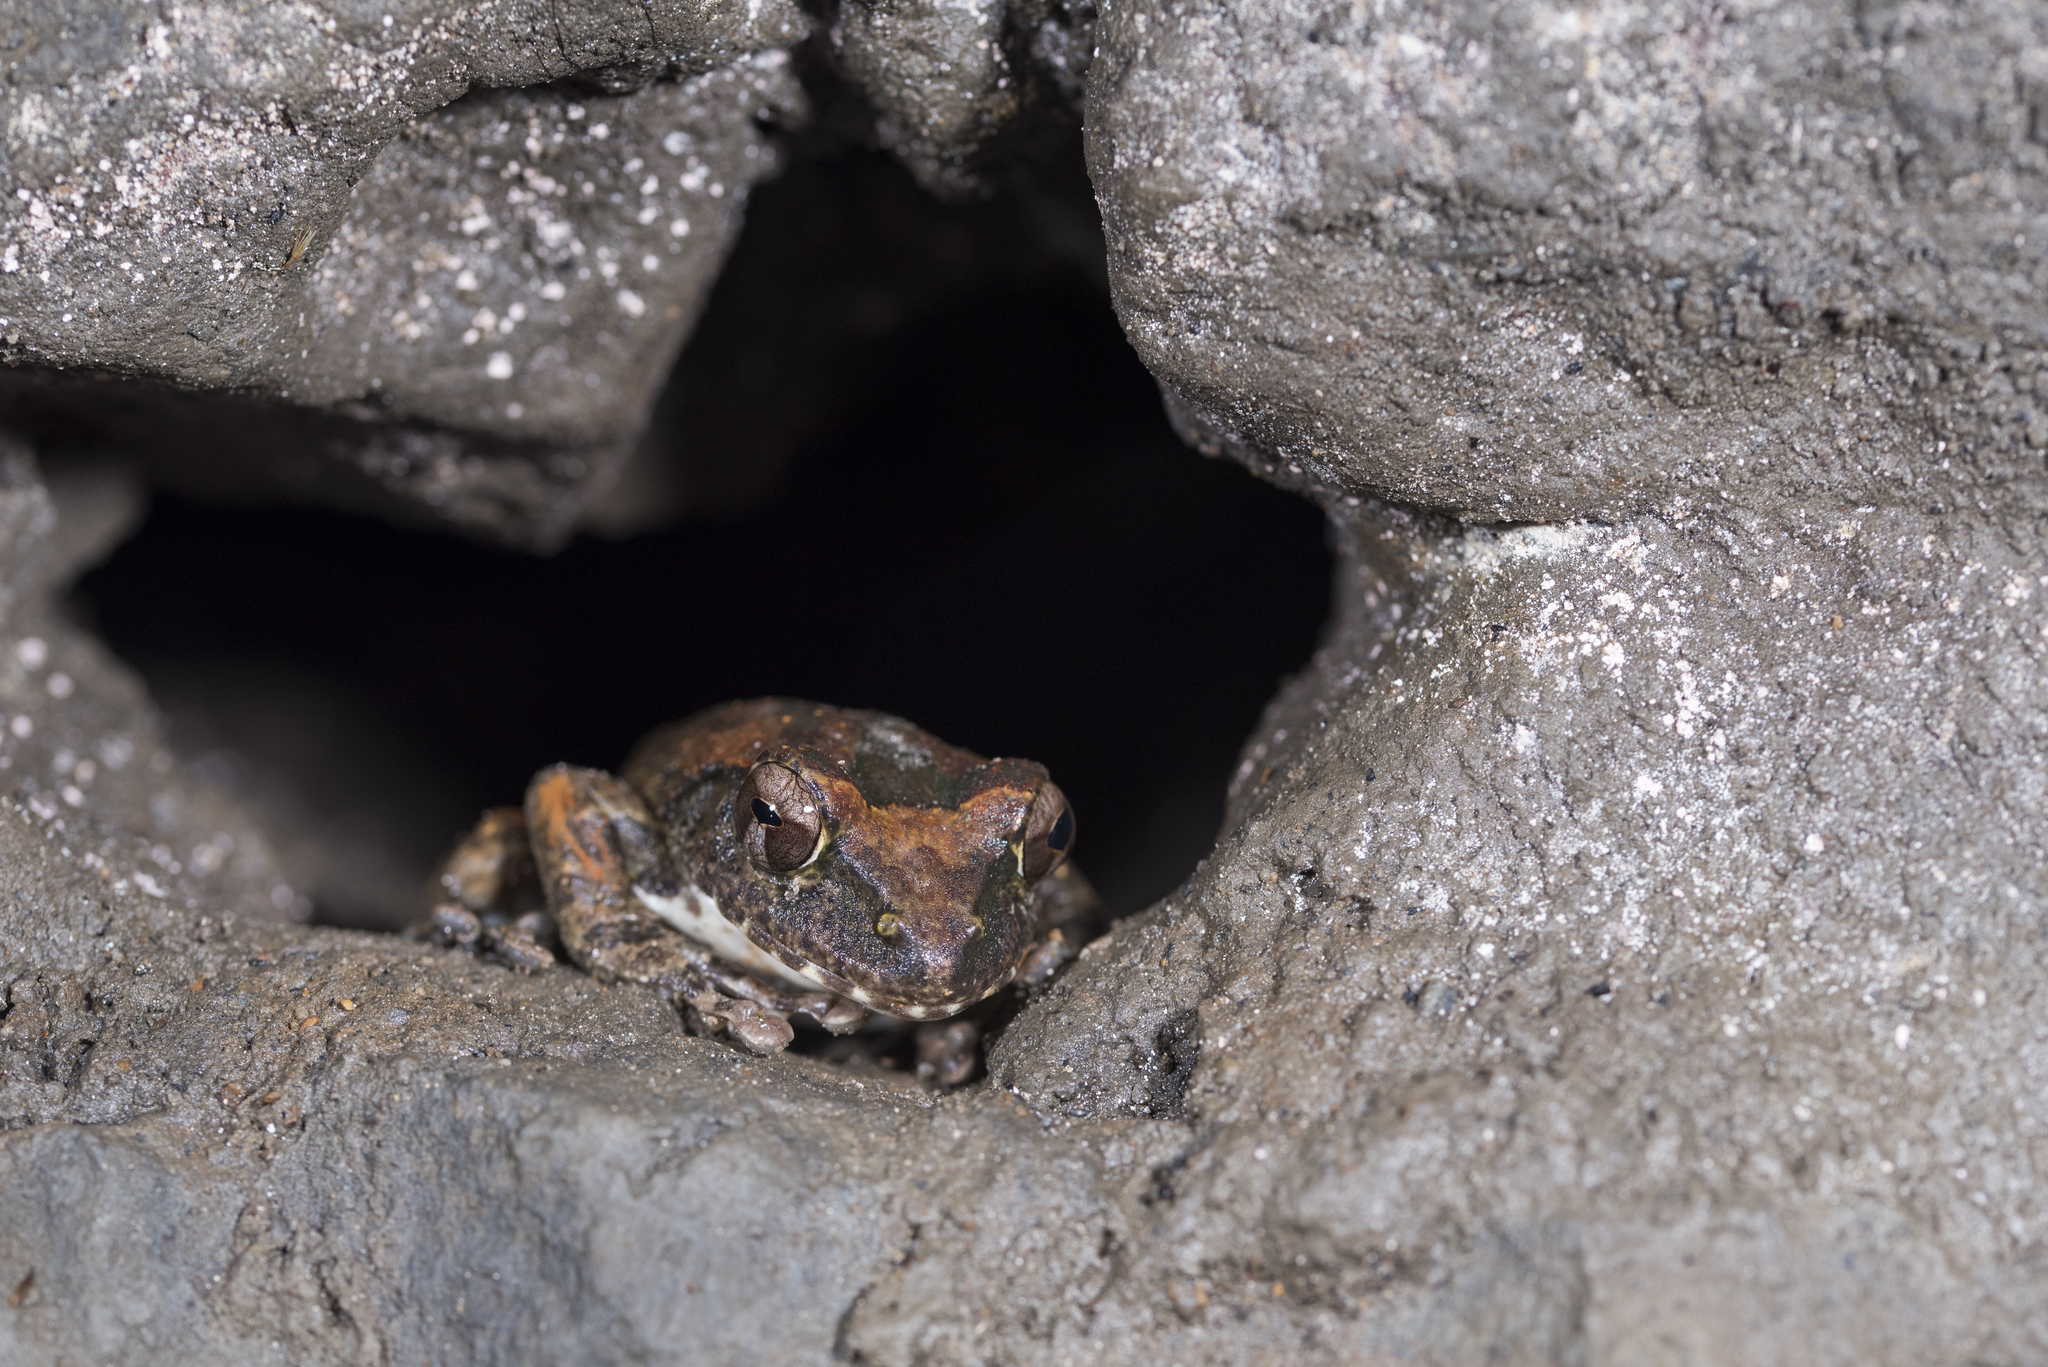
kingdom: Animalia
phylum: Chordata
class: Amphibia
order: Anura
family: Rhacophoridae
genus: Buergeria
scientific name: Buergeria robusta
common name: Brown treefrog
